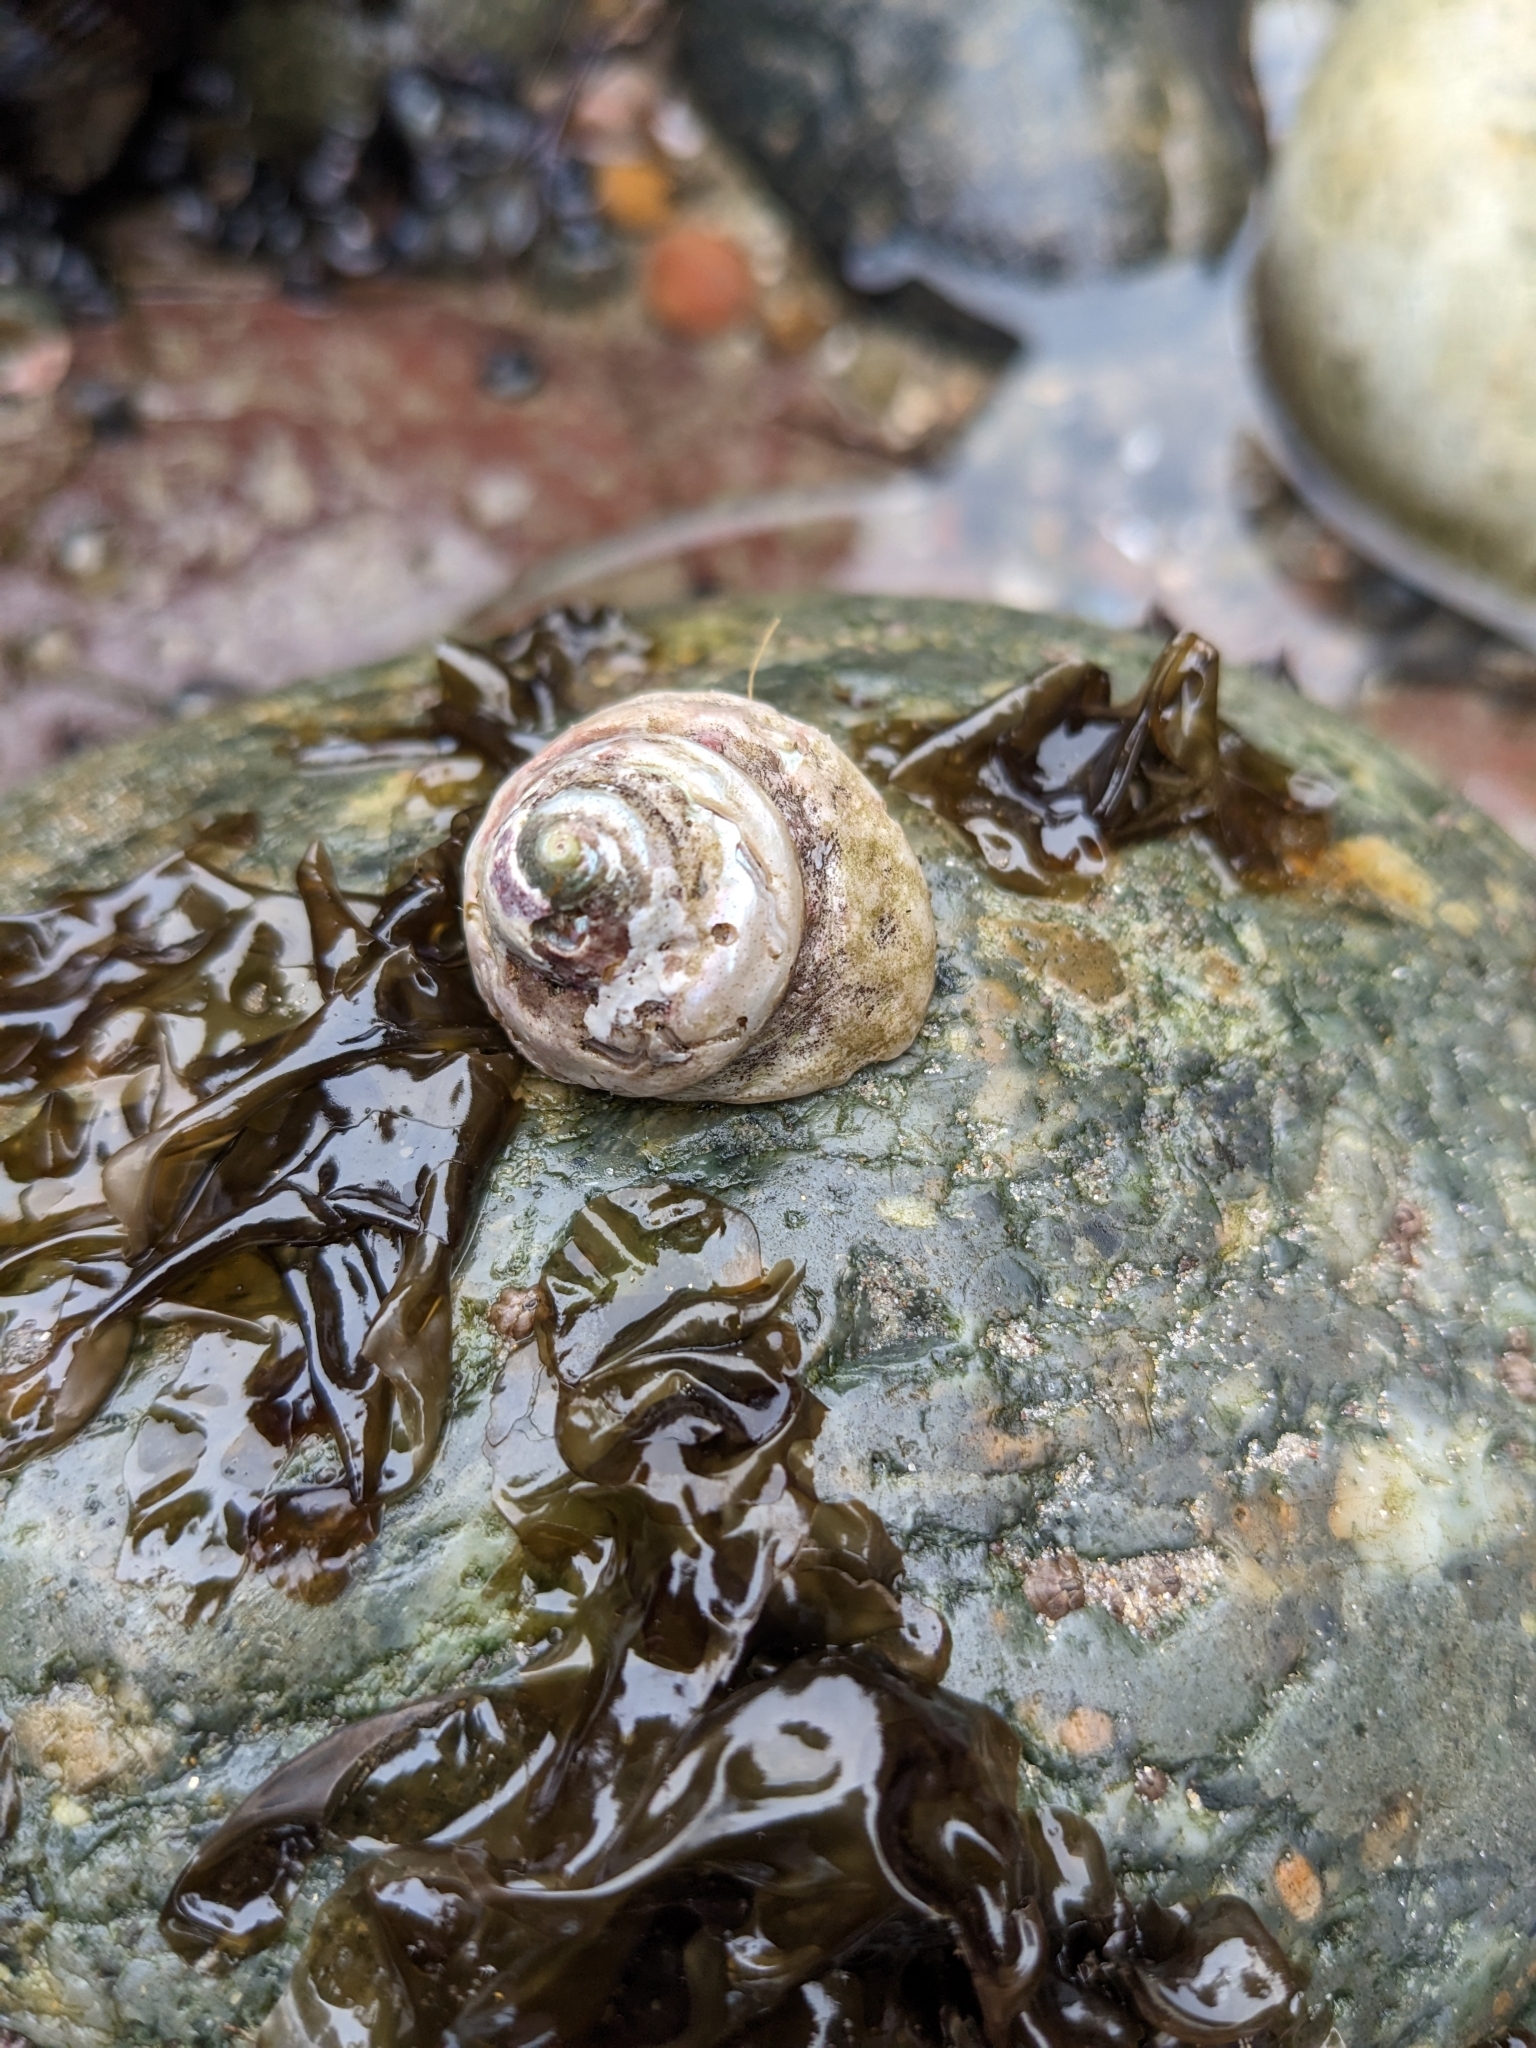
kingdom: Animalia
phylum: Mollusca
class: Gastropoda
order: Trochida
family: Tegulidae
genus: Tegula
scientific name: Tegula aureotincta
